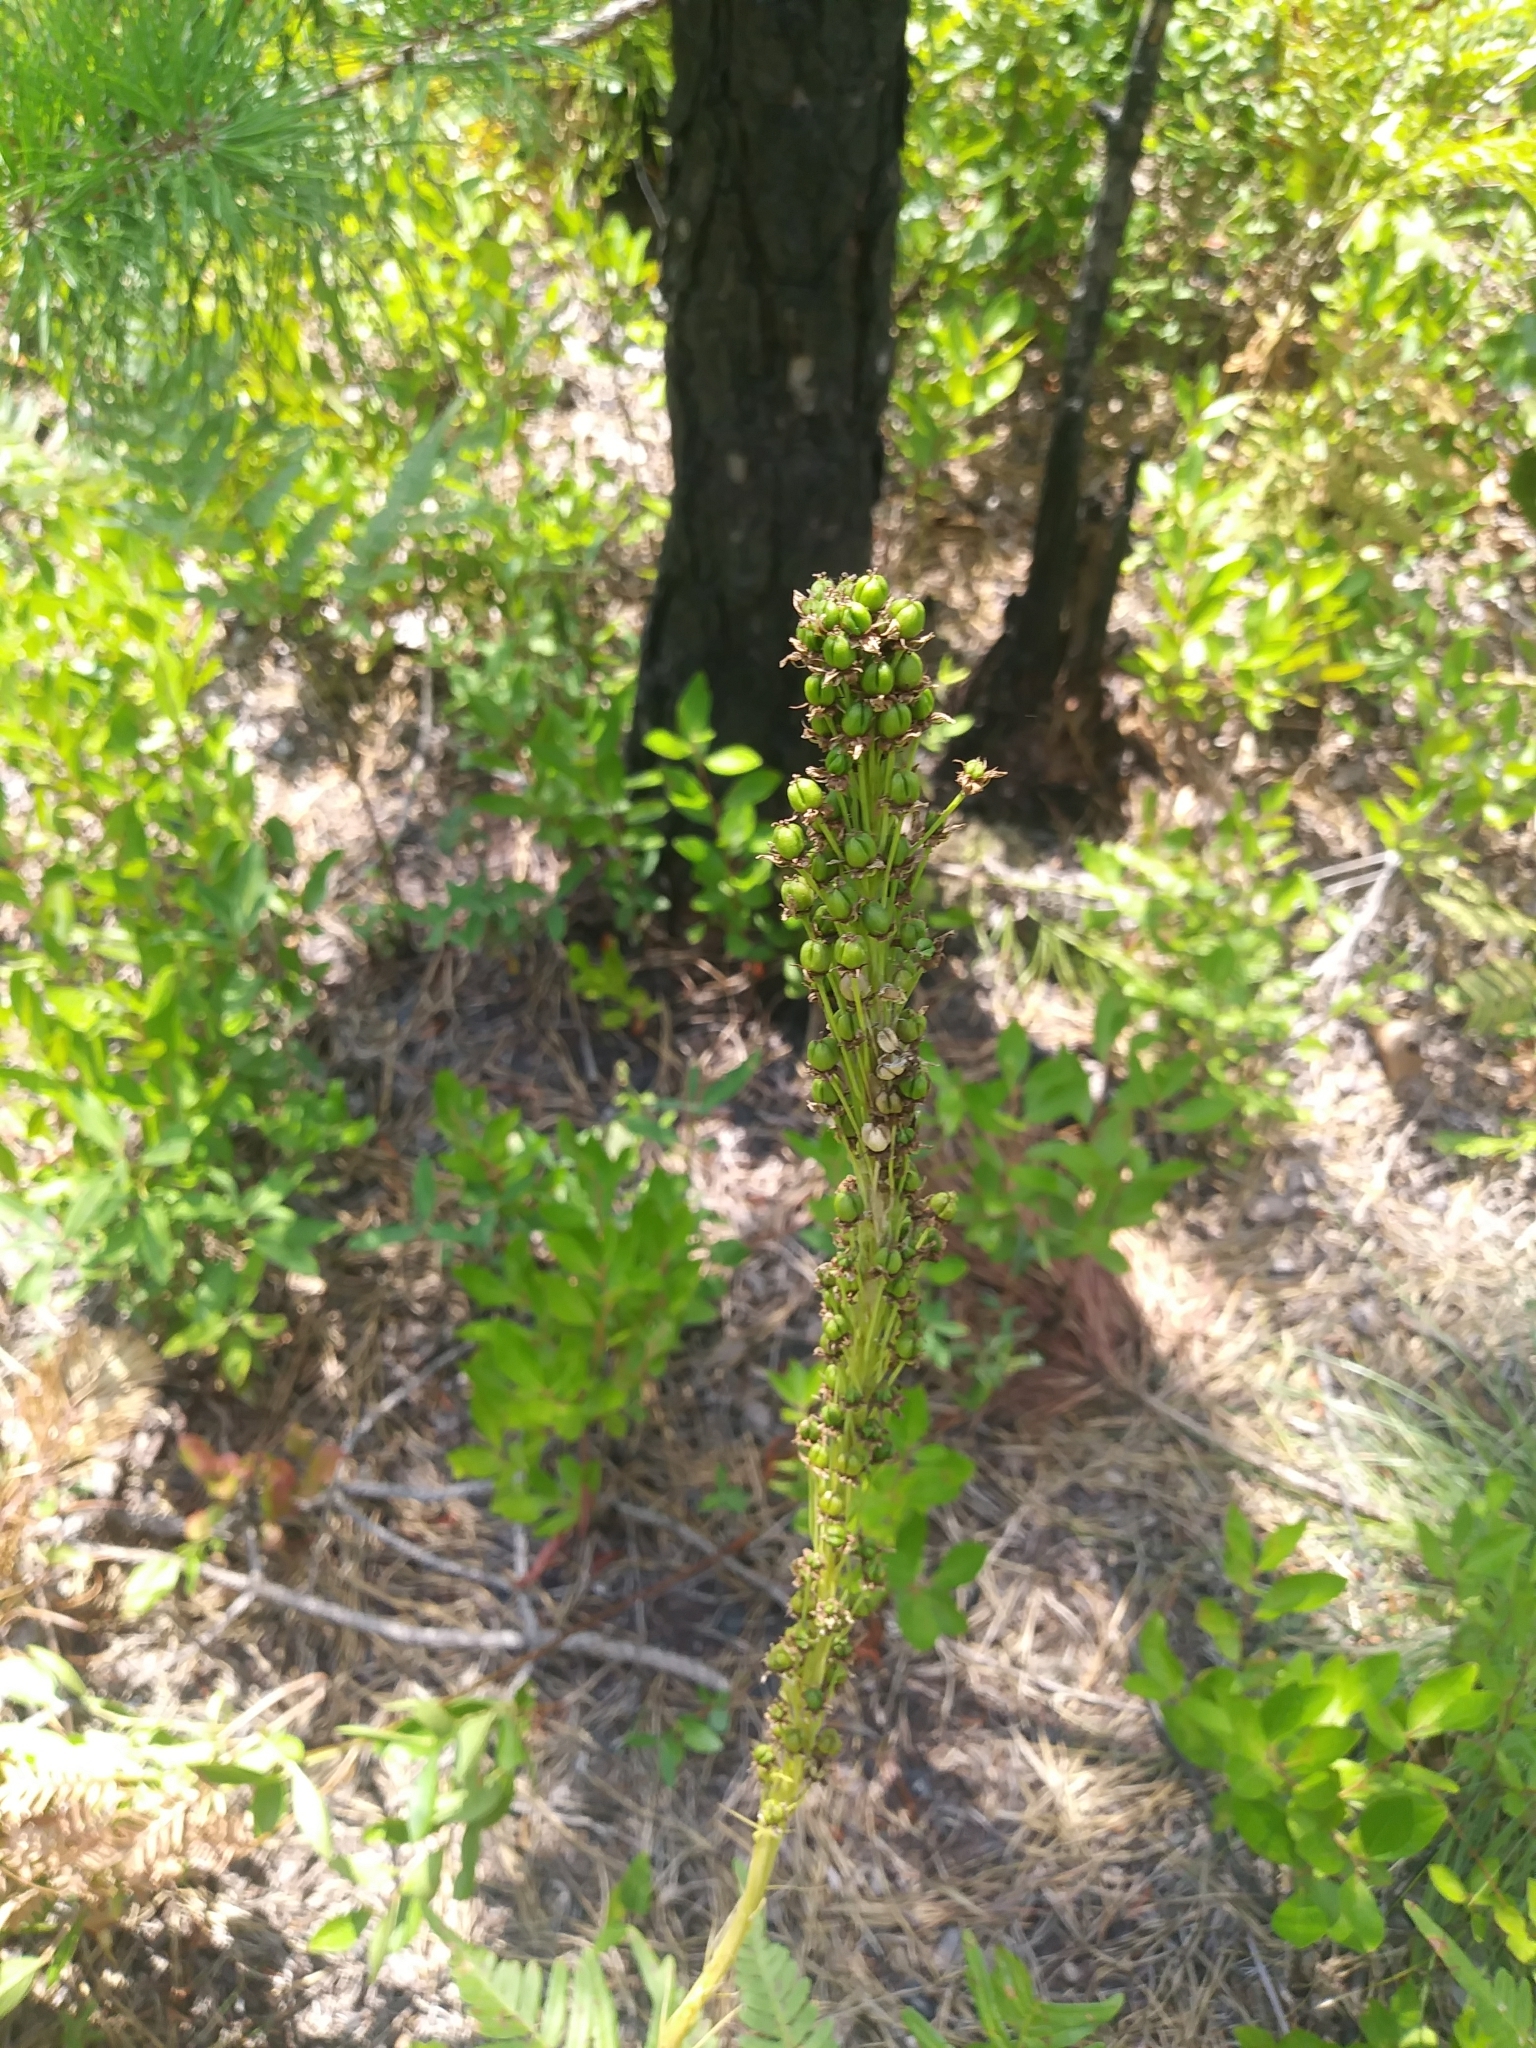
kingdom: Plantae
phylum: Tracheophyta
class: Liliopsida
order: Liliales
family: Melanthiaceae
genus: Xerophyllum
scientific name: Xerophyllum asphodeloides
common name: Mountain-asphodel
